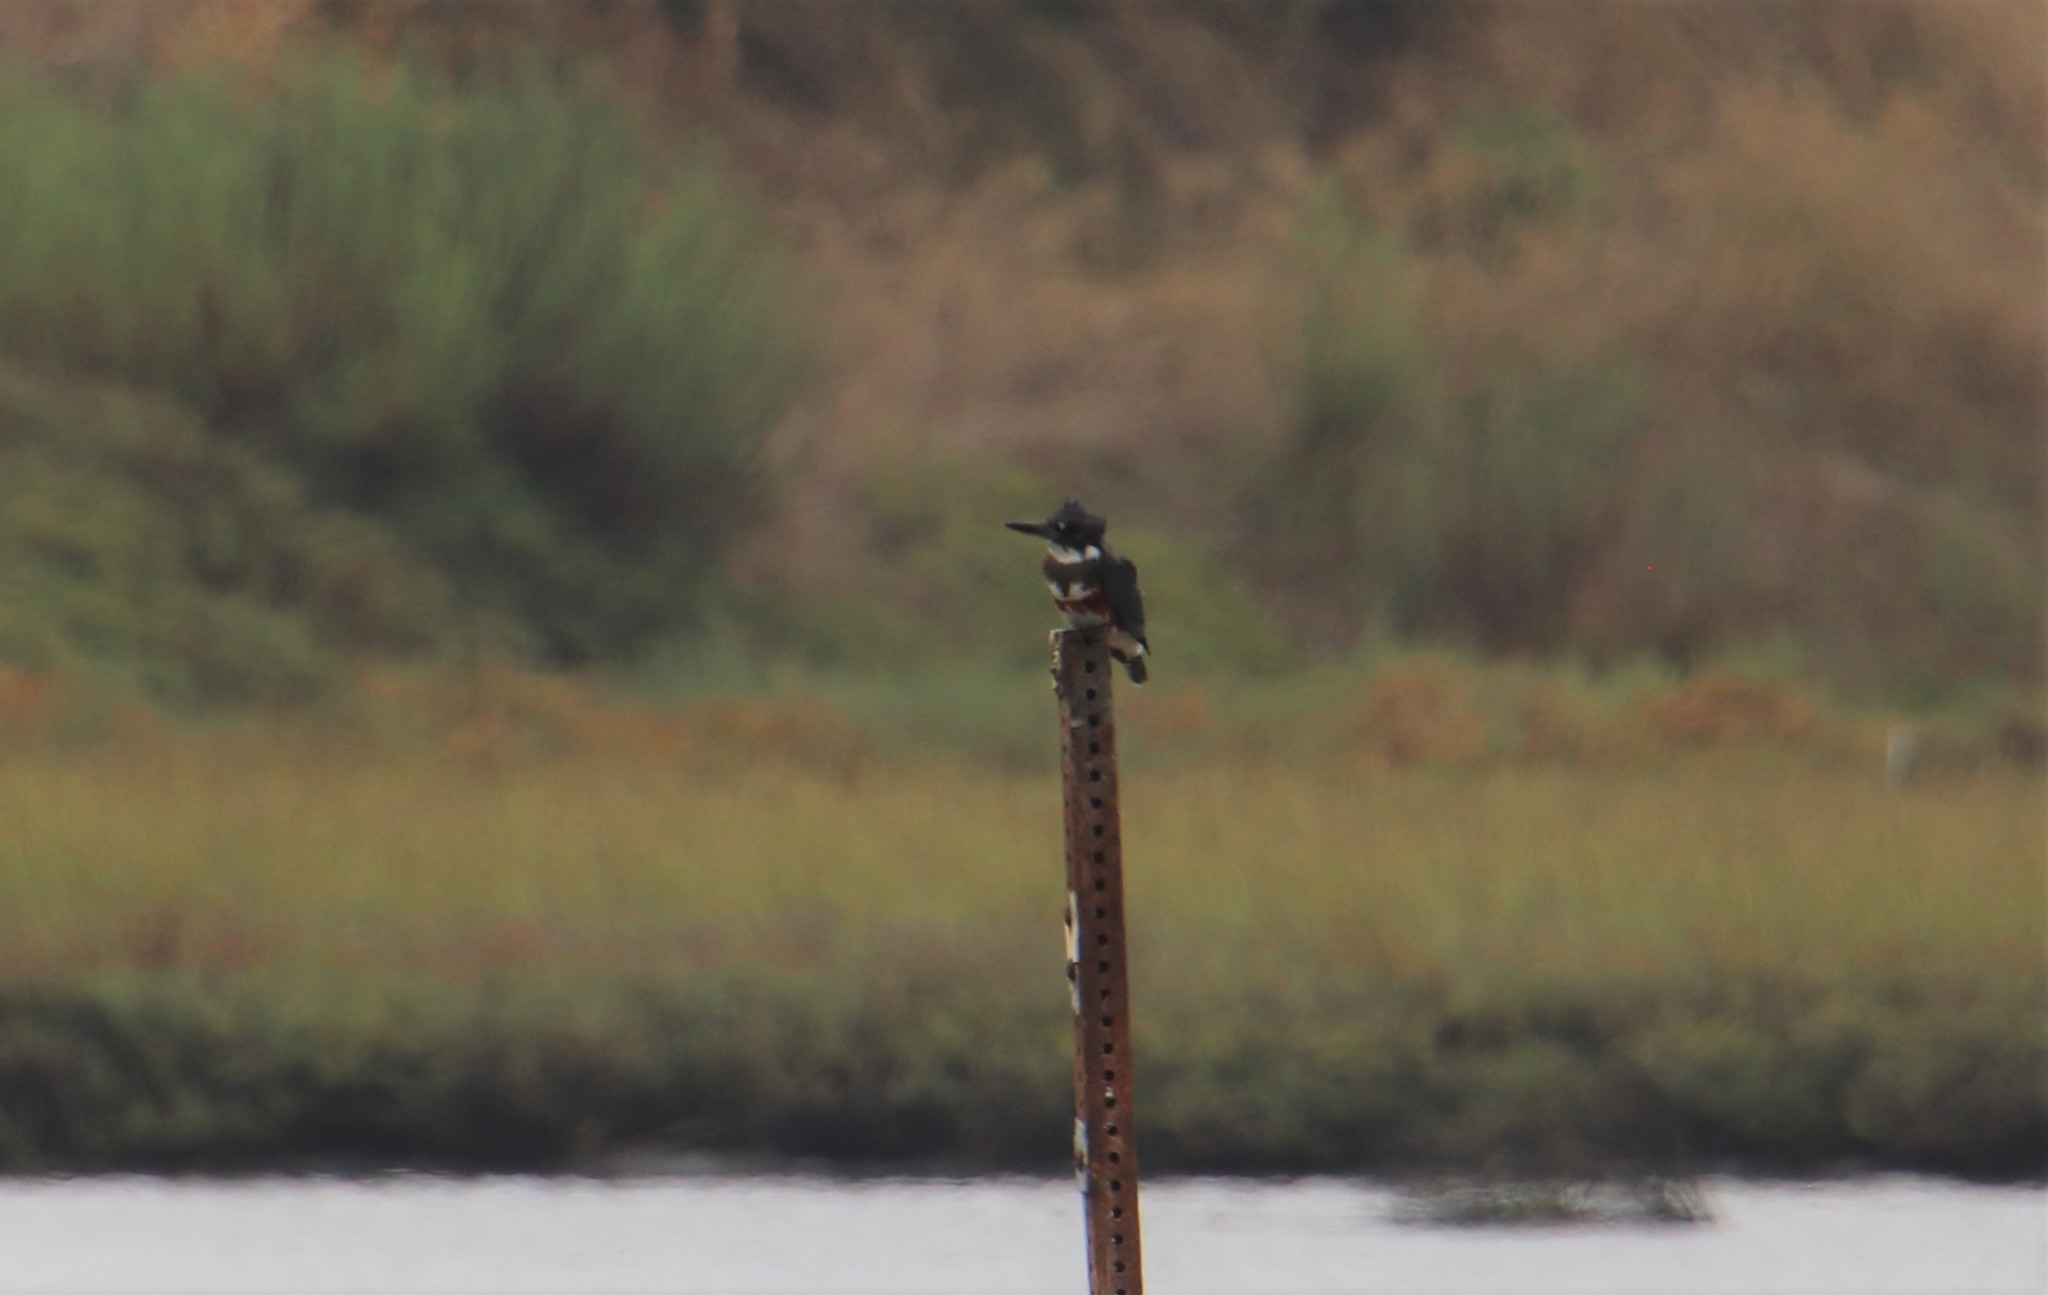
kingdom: Animalia
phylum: Chordata
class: Aves
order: Coraciiformes
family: Alcedinidae
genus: Megaceryle
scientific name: Megaceryle alcyon
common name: Belted kingfisher
